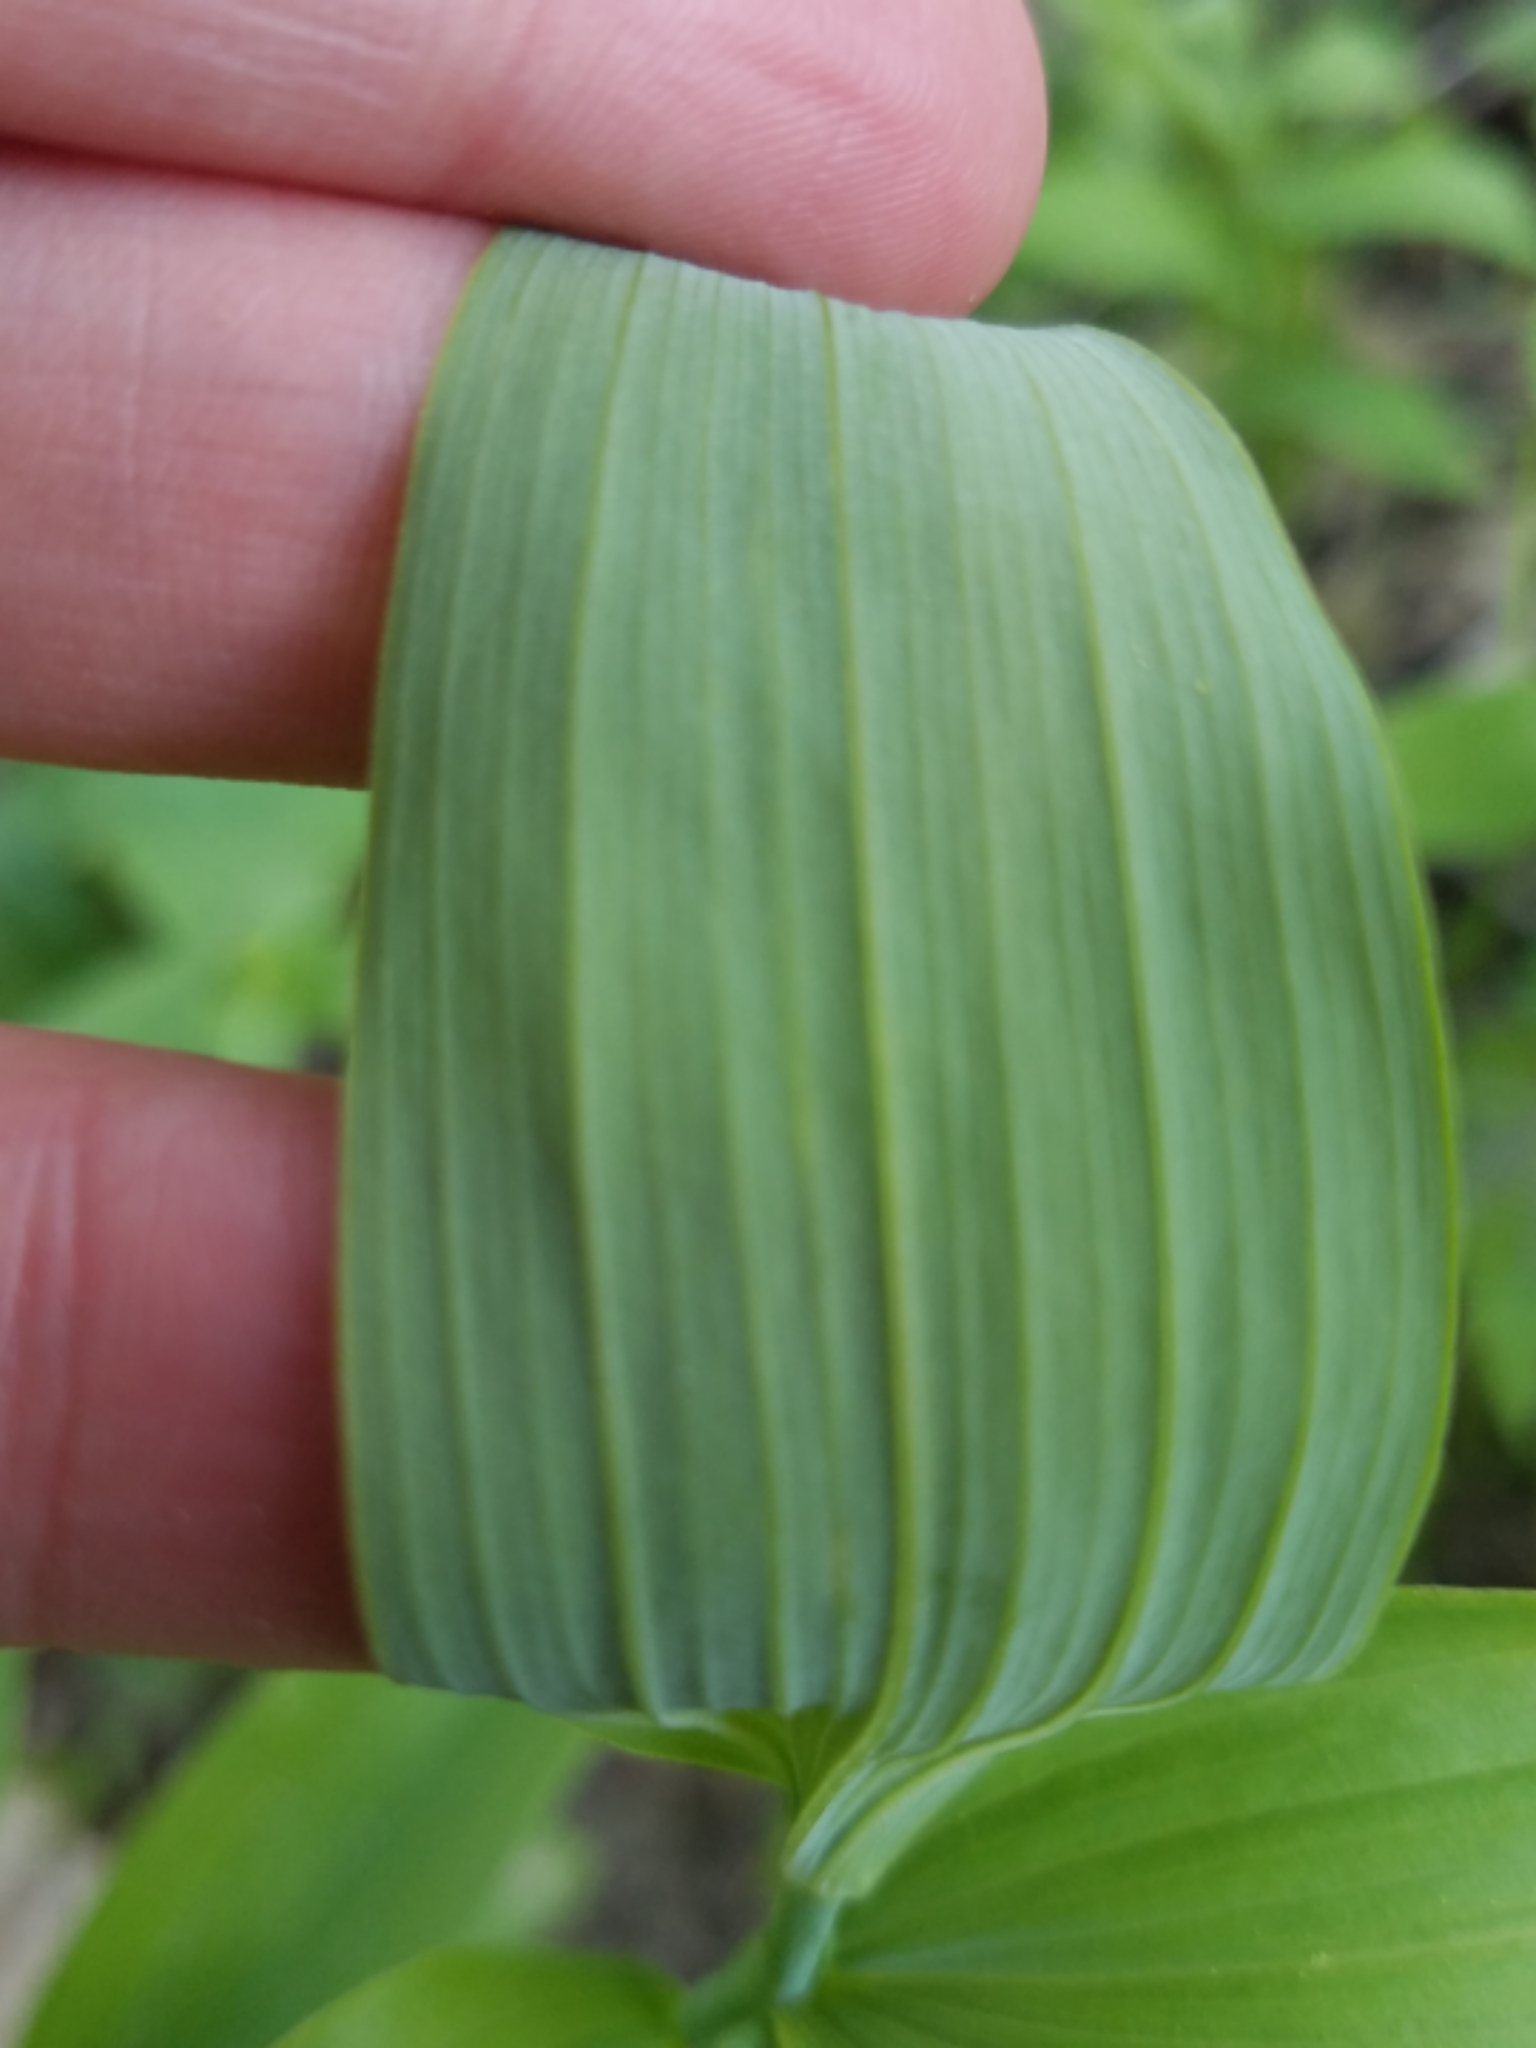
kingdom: Plantae
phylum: Tracheophyta
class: Liliopsida
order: Asparagales
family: Asparagaceae
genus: Polygonatum
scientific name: Polygonatum biflorum
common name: American solomon's-seal
